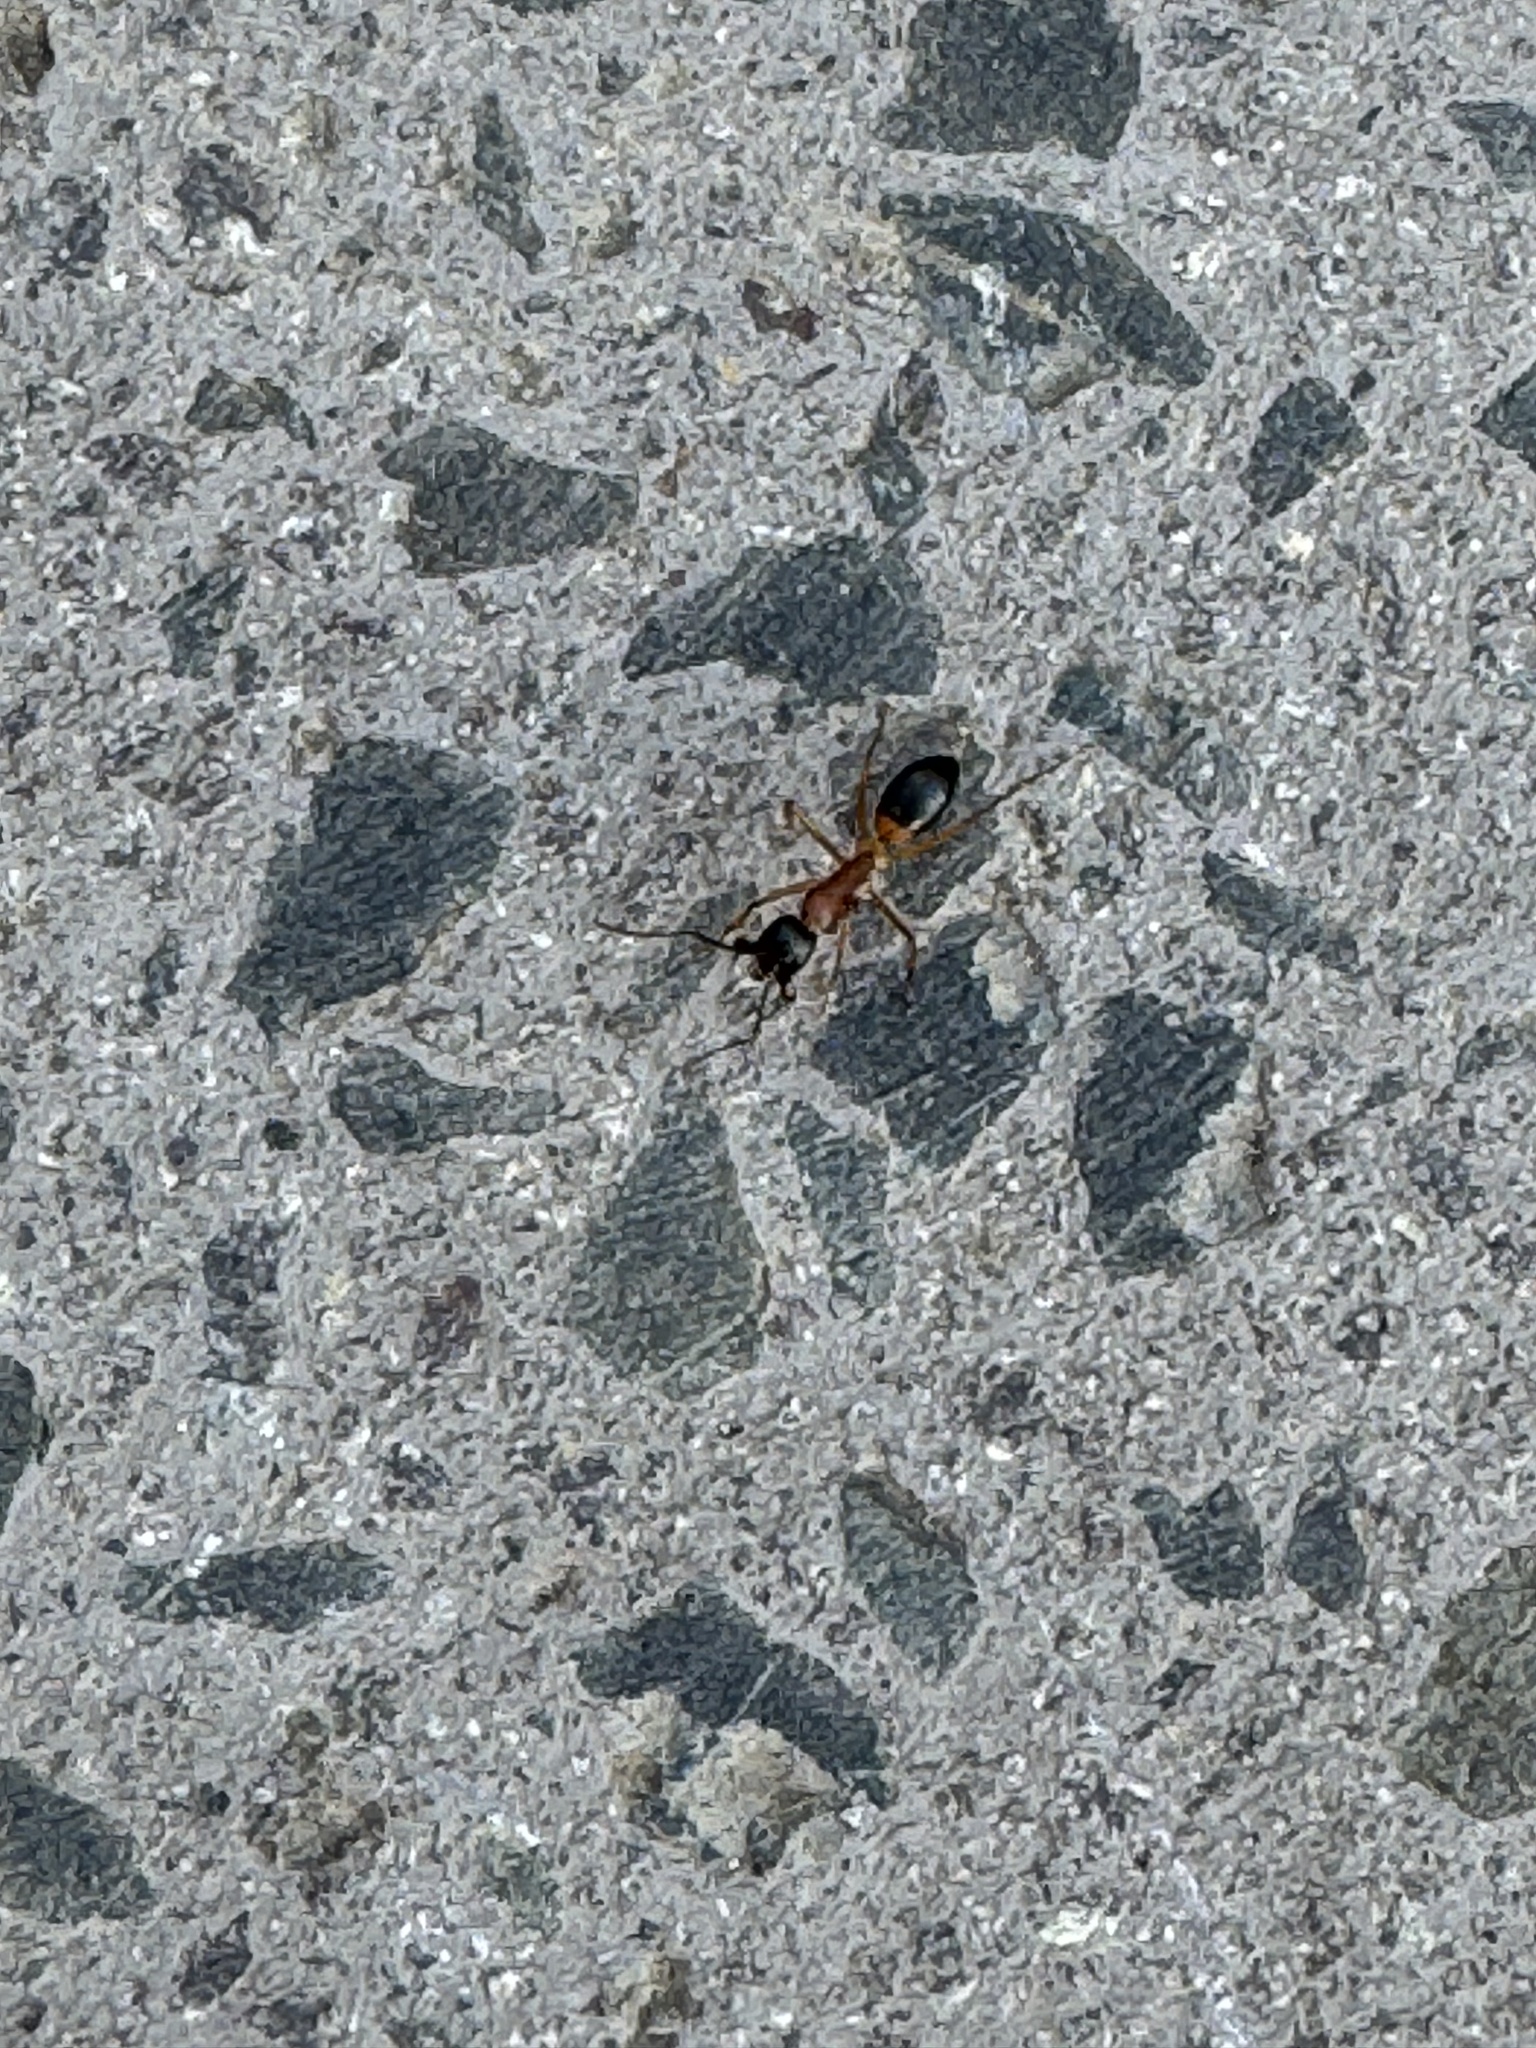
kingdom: Animalia
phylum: Arthropoda
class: Insecta
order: Hymenoptera
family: Formicidae
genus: Camponotus
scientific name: Camponotus consobrinus
